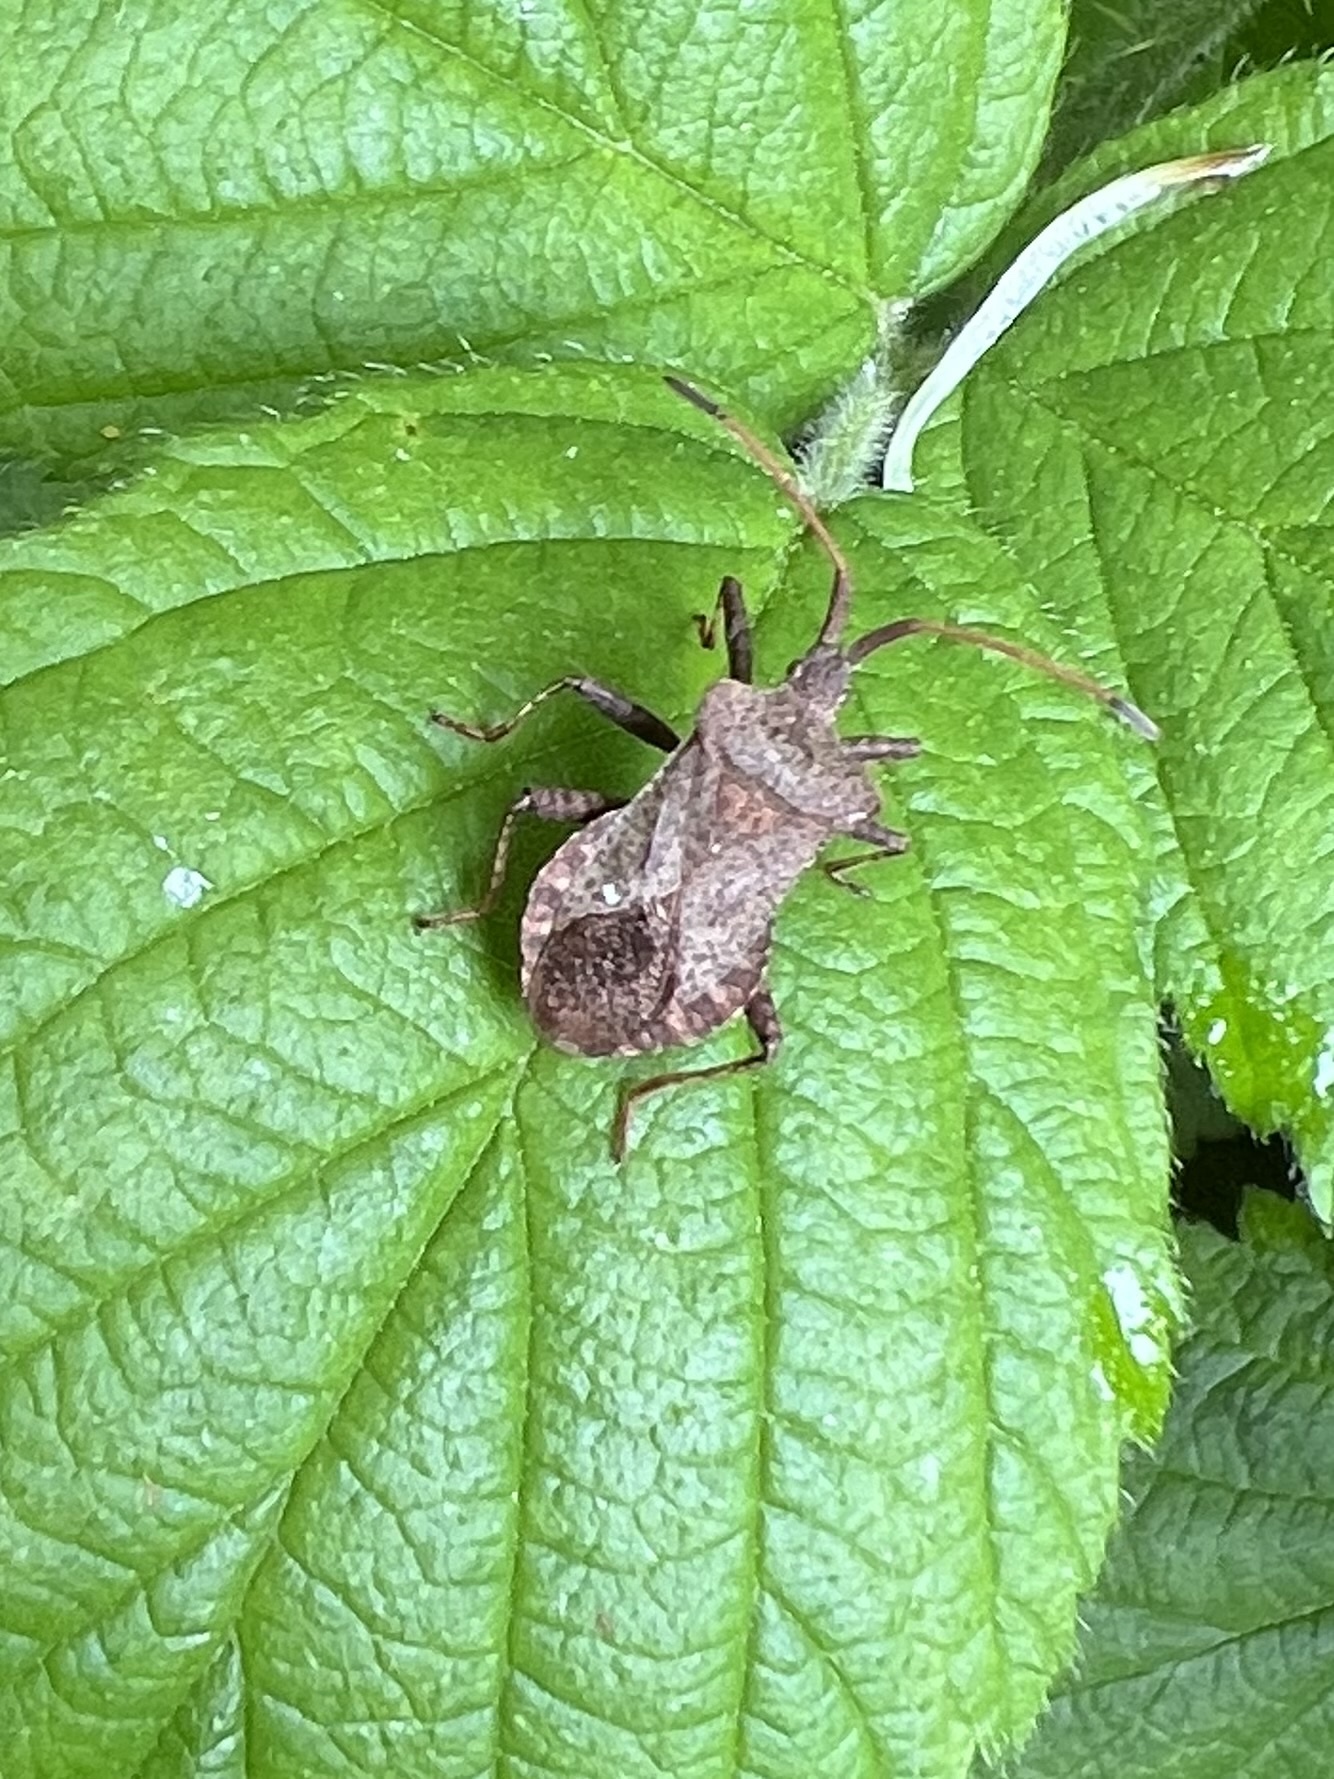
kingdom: Animalia
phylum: Arthropoda
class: Insecta
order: Hemiptera
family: Coreidae
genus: Coreus
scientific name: Coreus marginatus
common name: Dock bug
